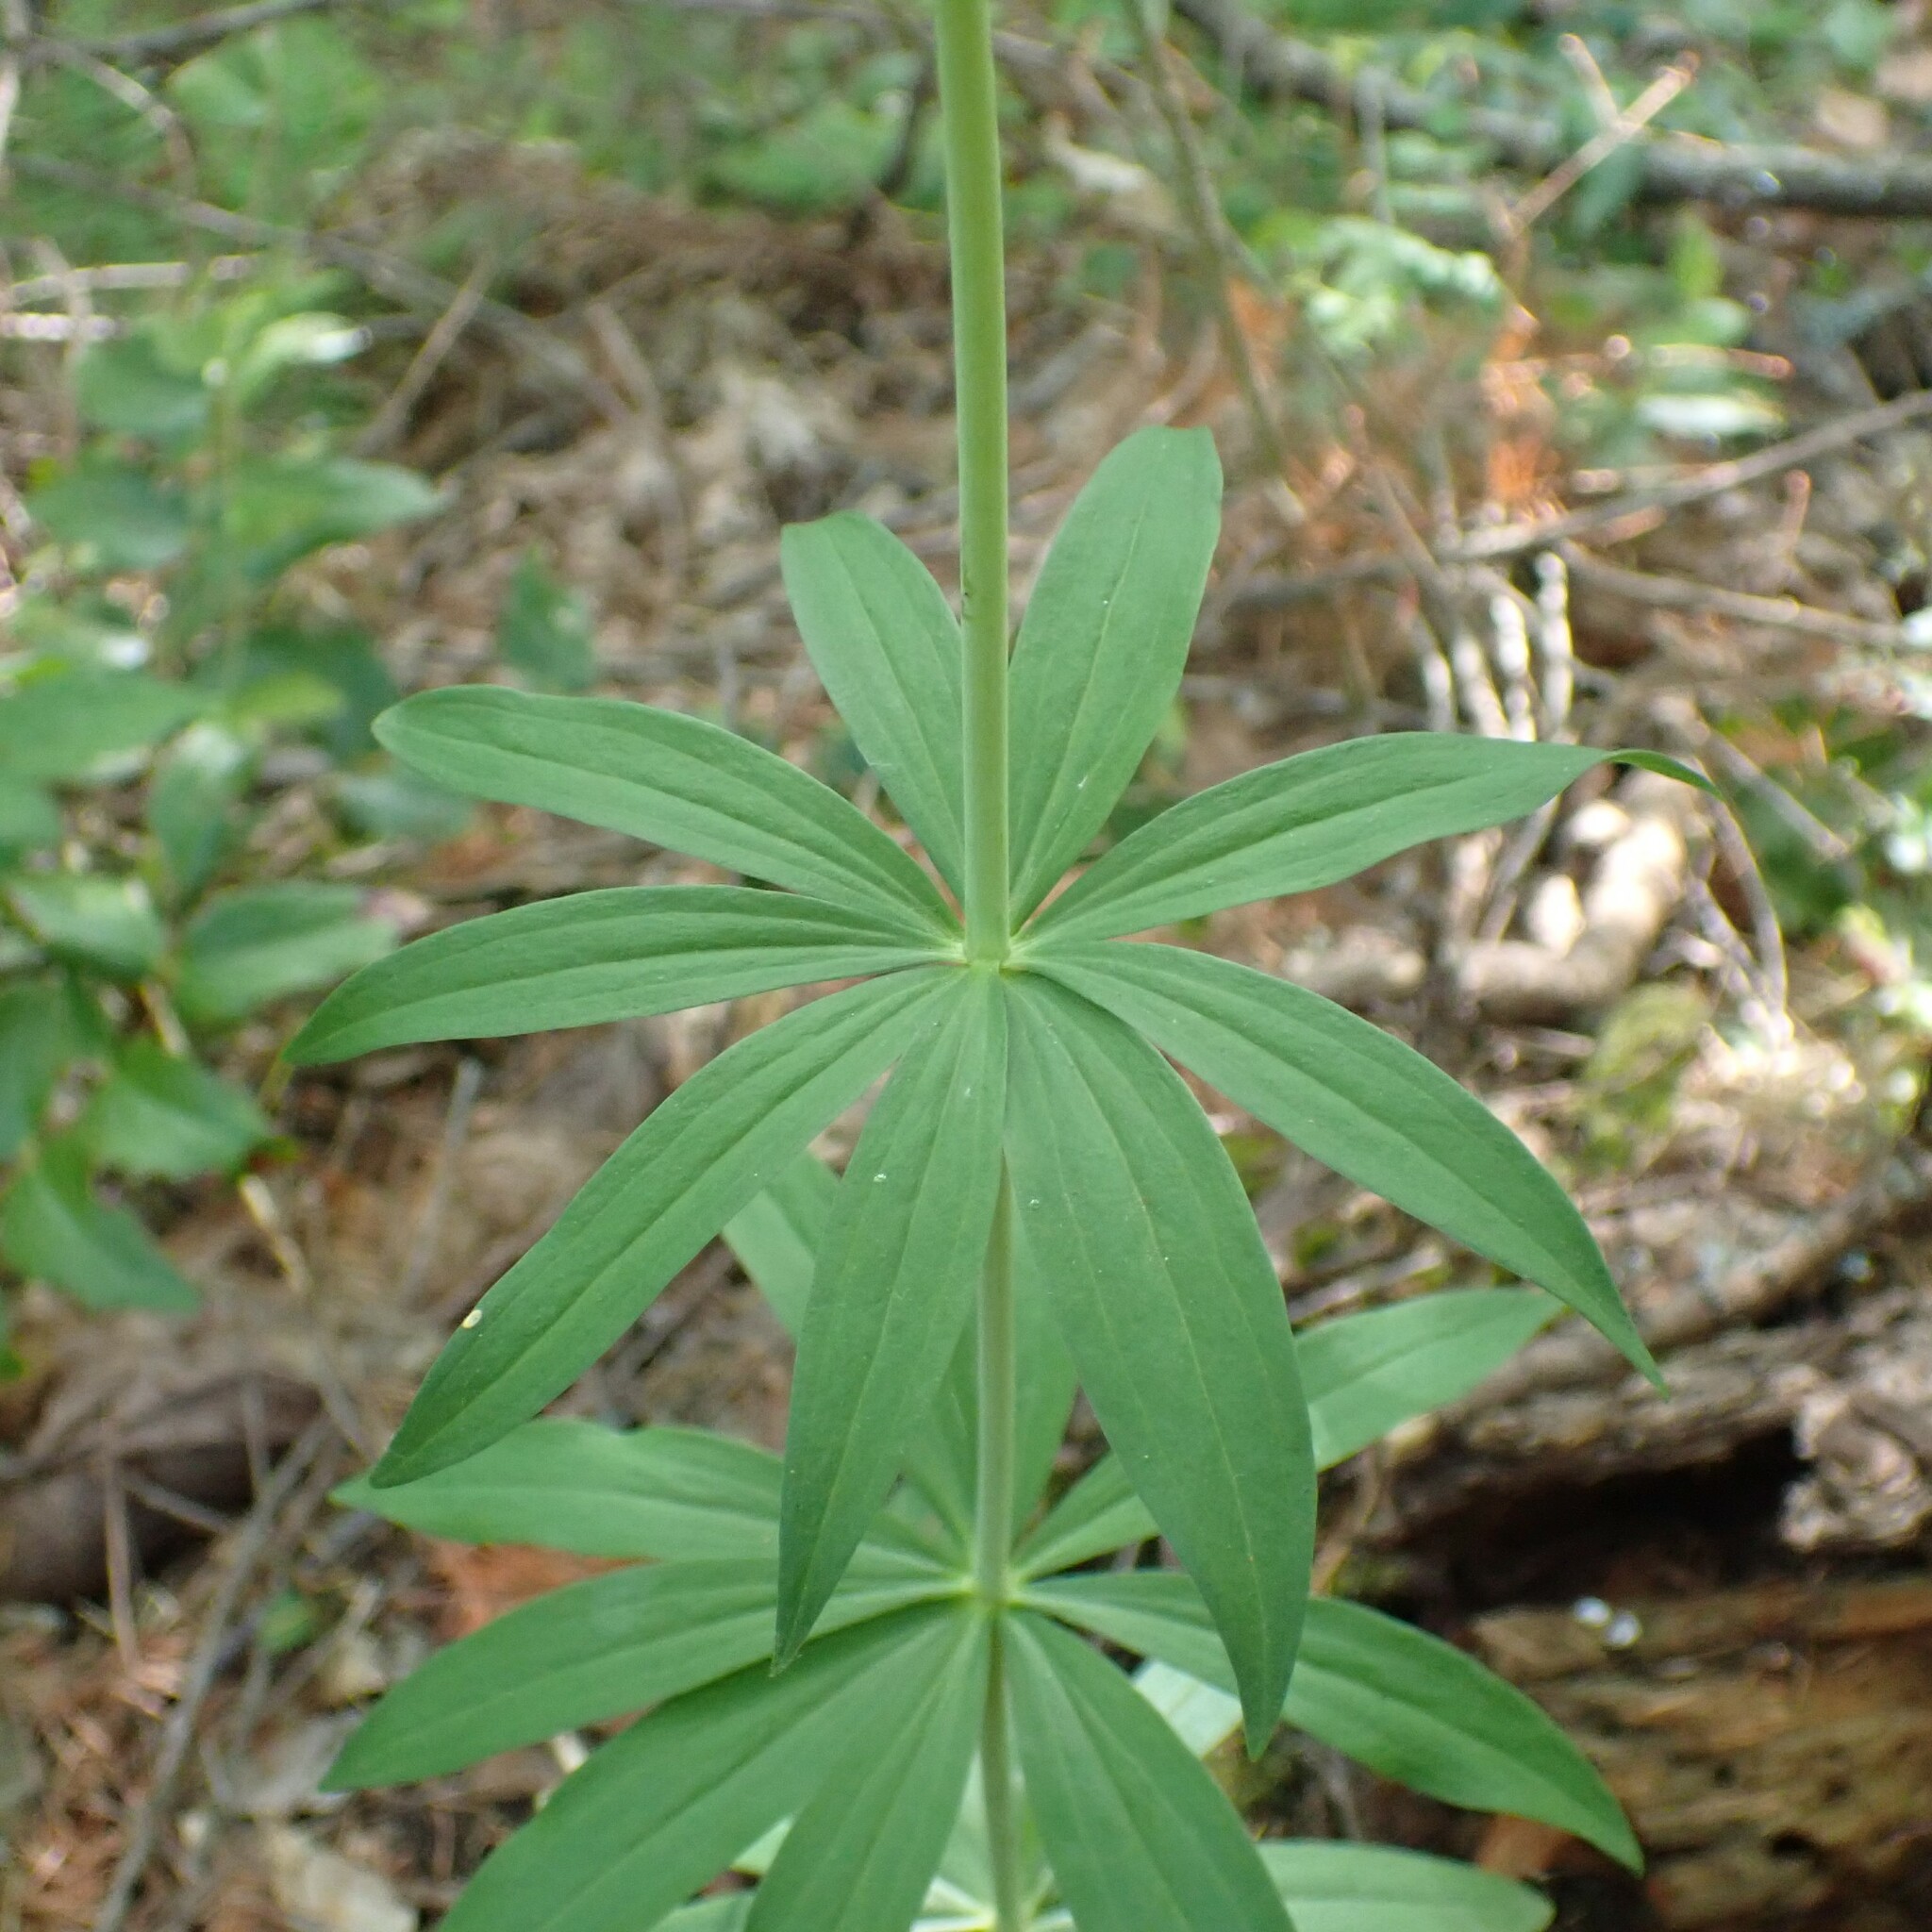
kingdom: Plantae
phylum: Tracheophyta
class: Liliopsida
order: Liliales
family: Liliaceae
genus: Lilium
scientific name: Lilium columbianum
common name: Columbia lily
